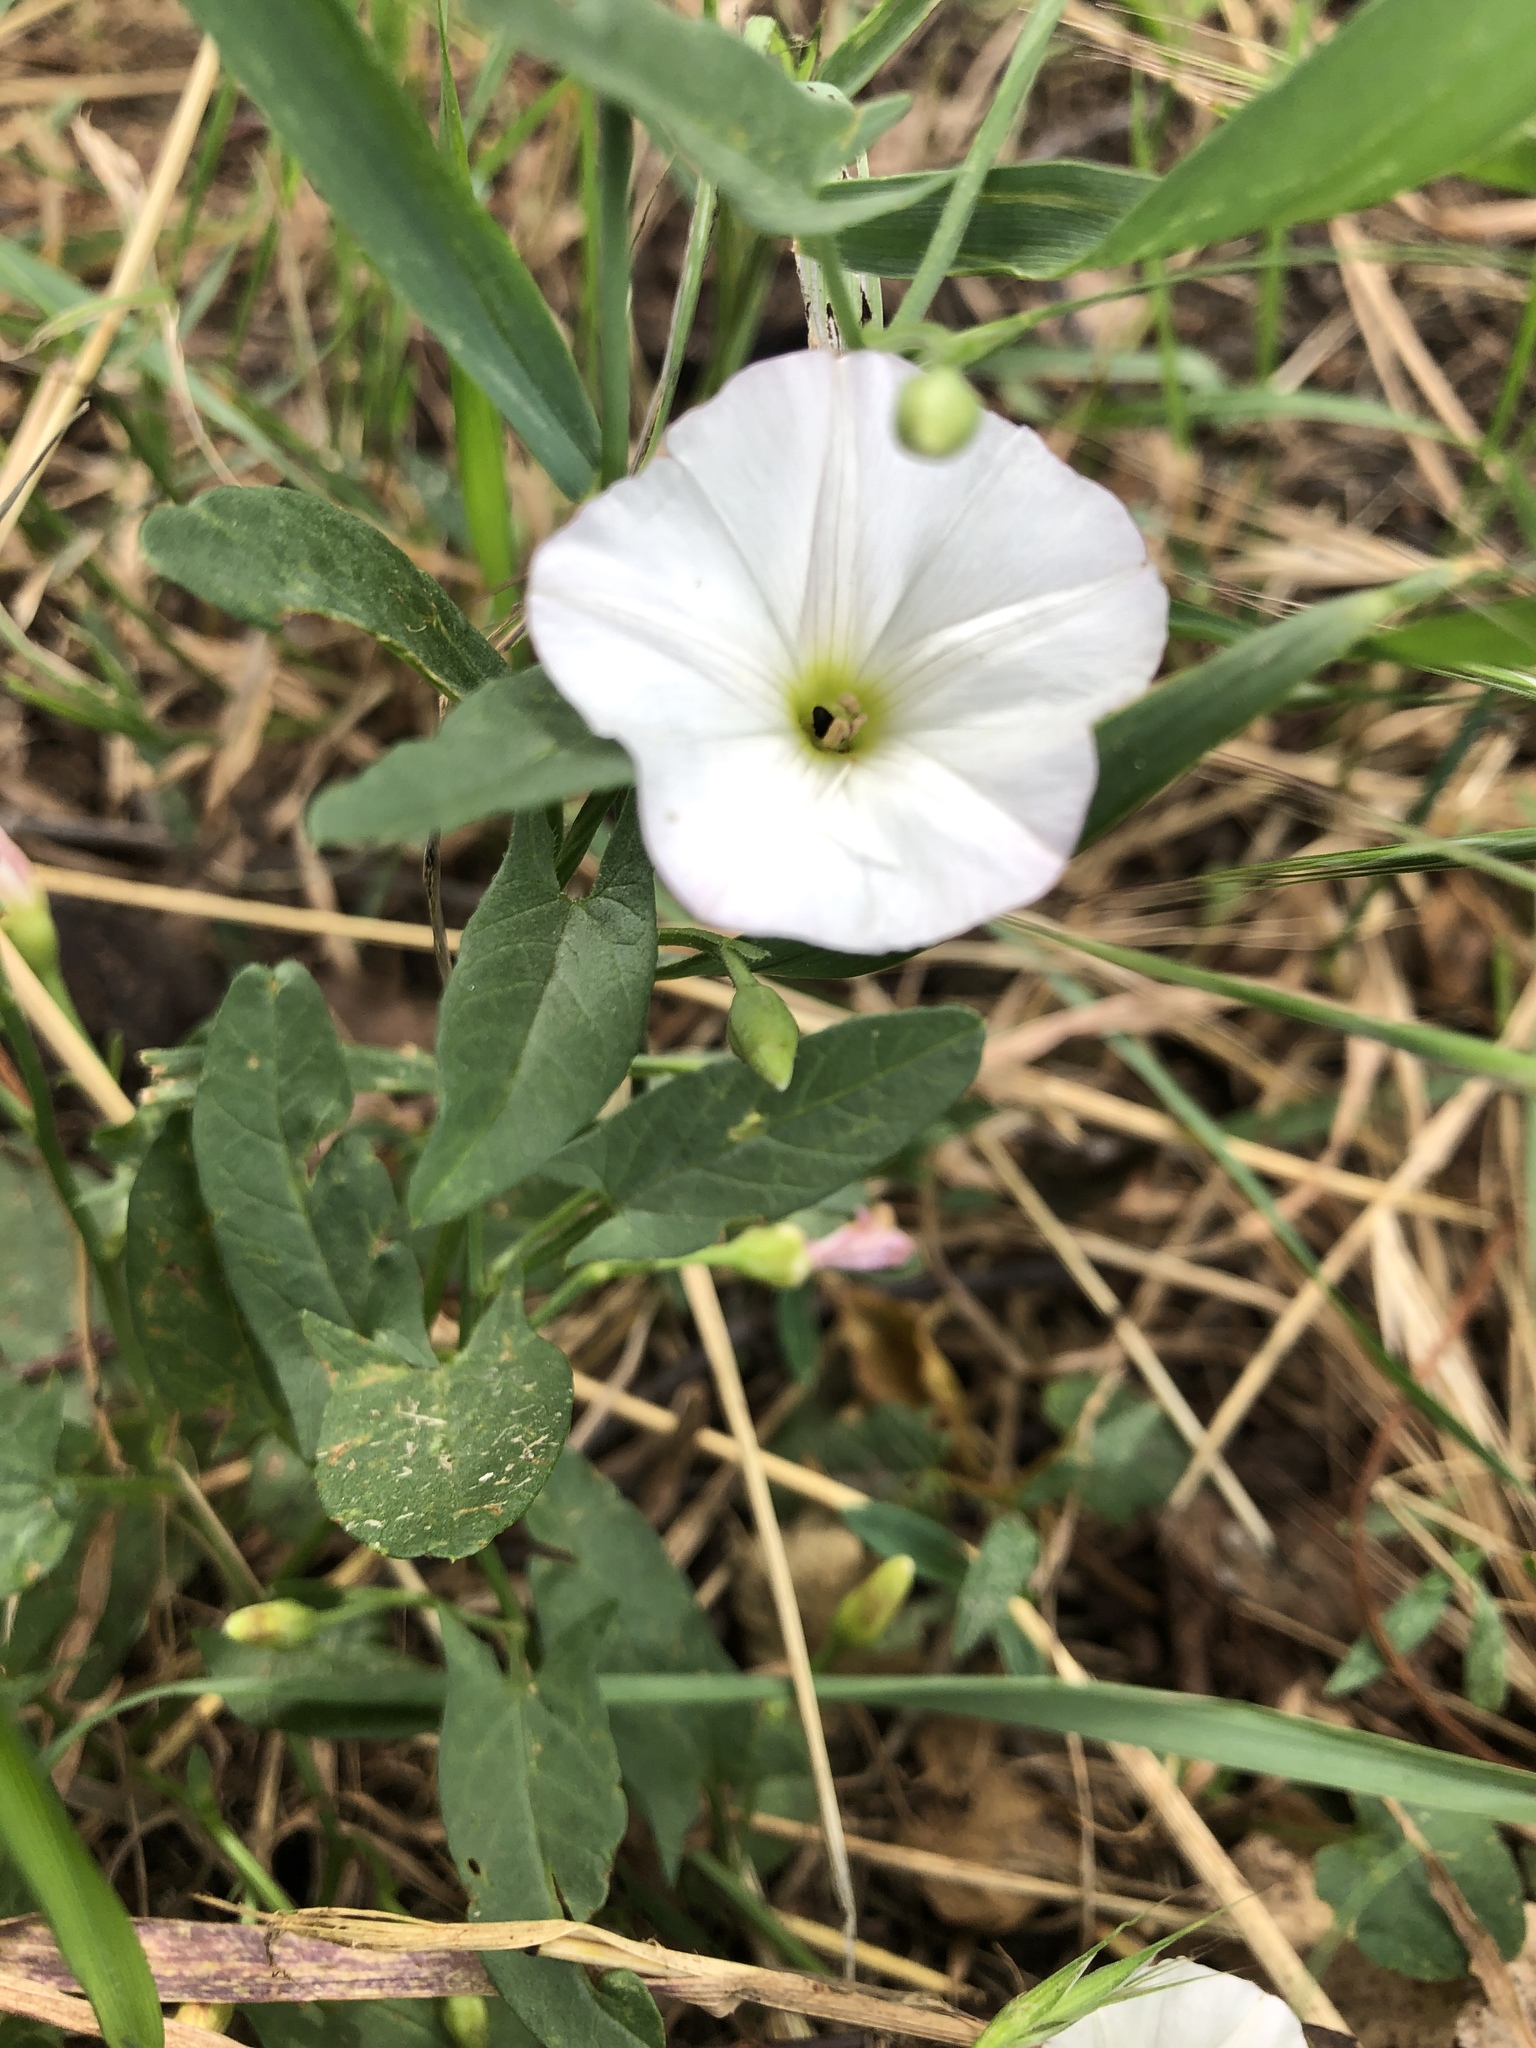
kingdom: Plantae
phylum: Tracheophyta
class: Magnoliopsida
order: Solanales
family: Convolvulaceae
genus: Convolvulus
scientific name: Convolvulus arvensis
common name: Field bindweed
